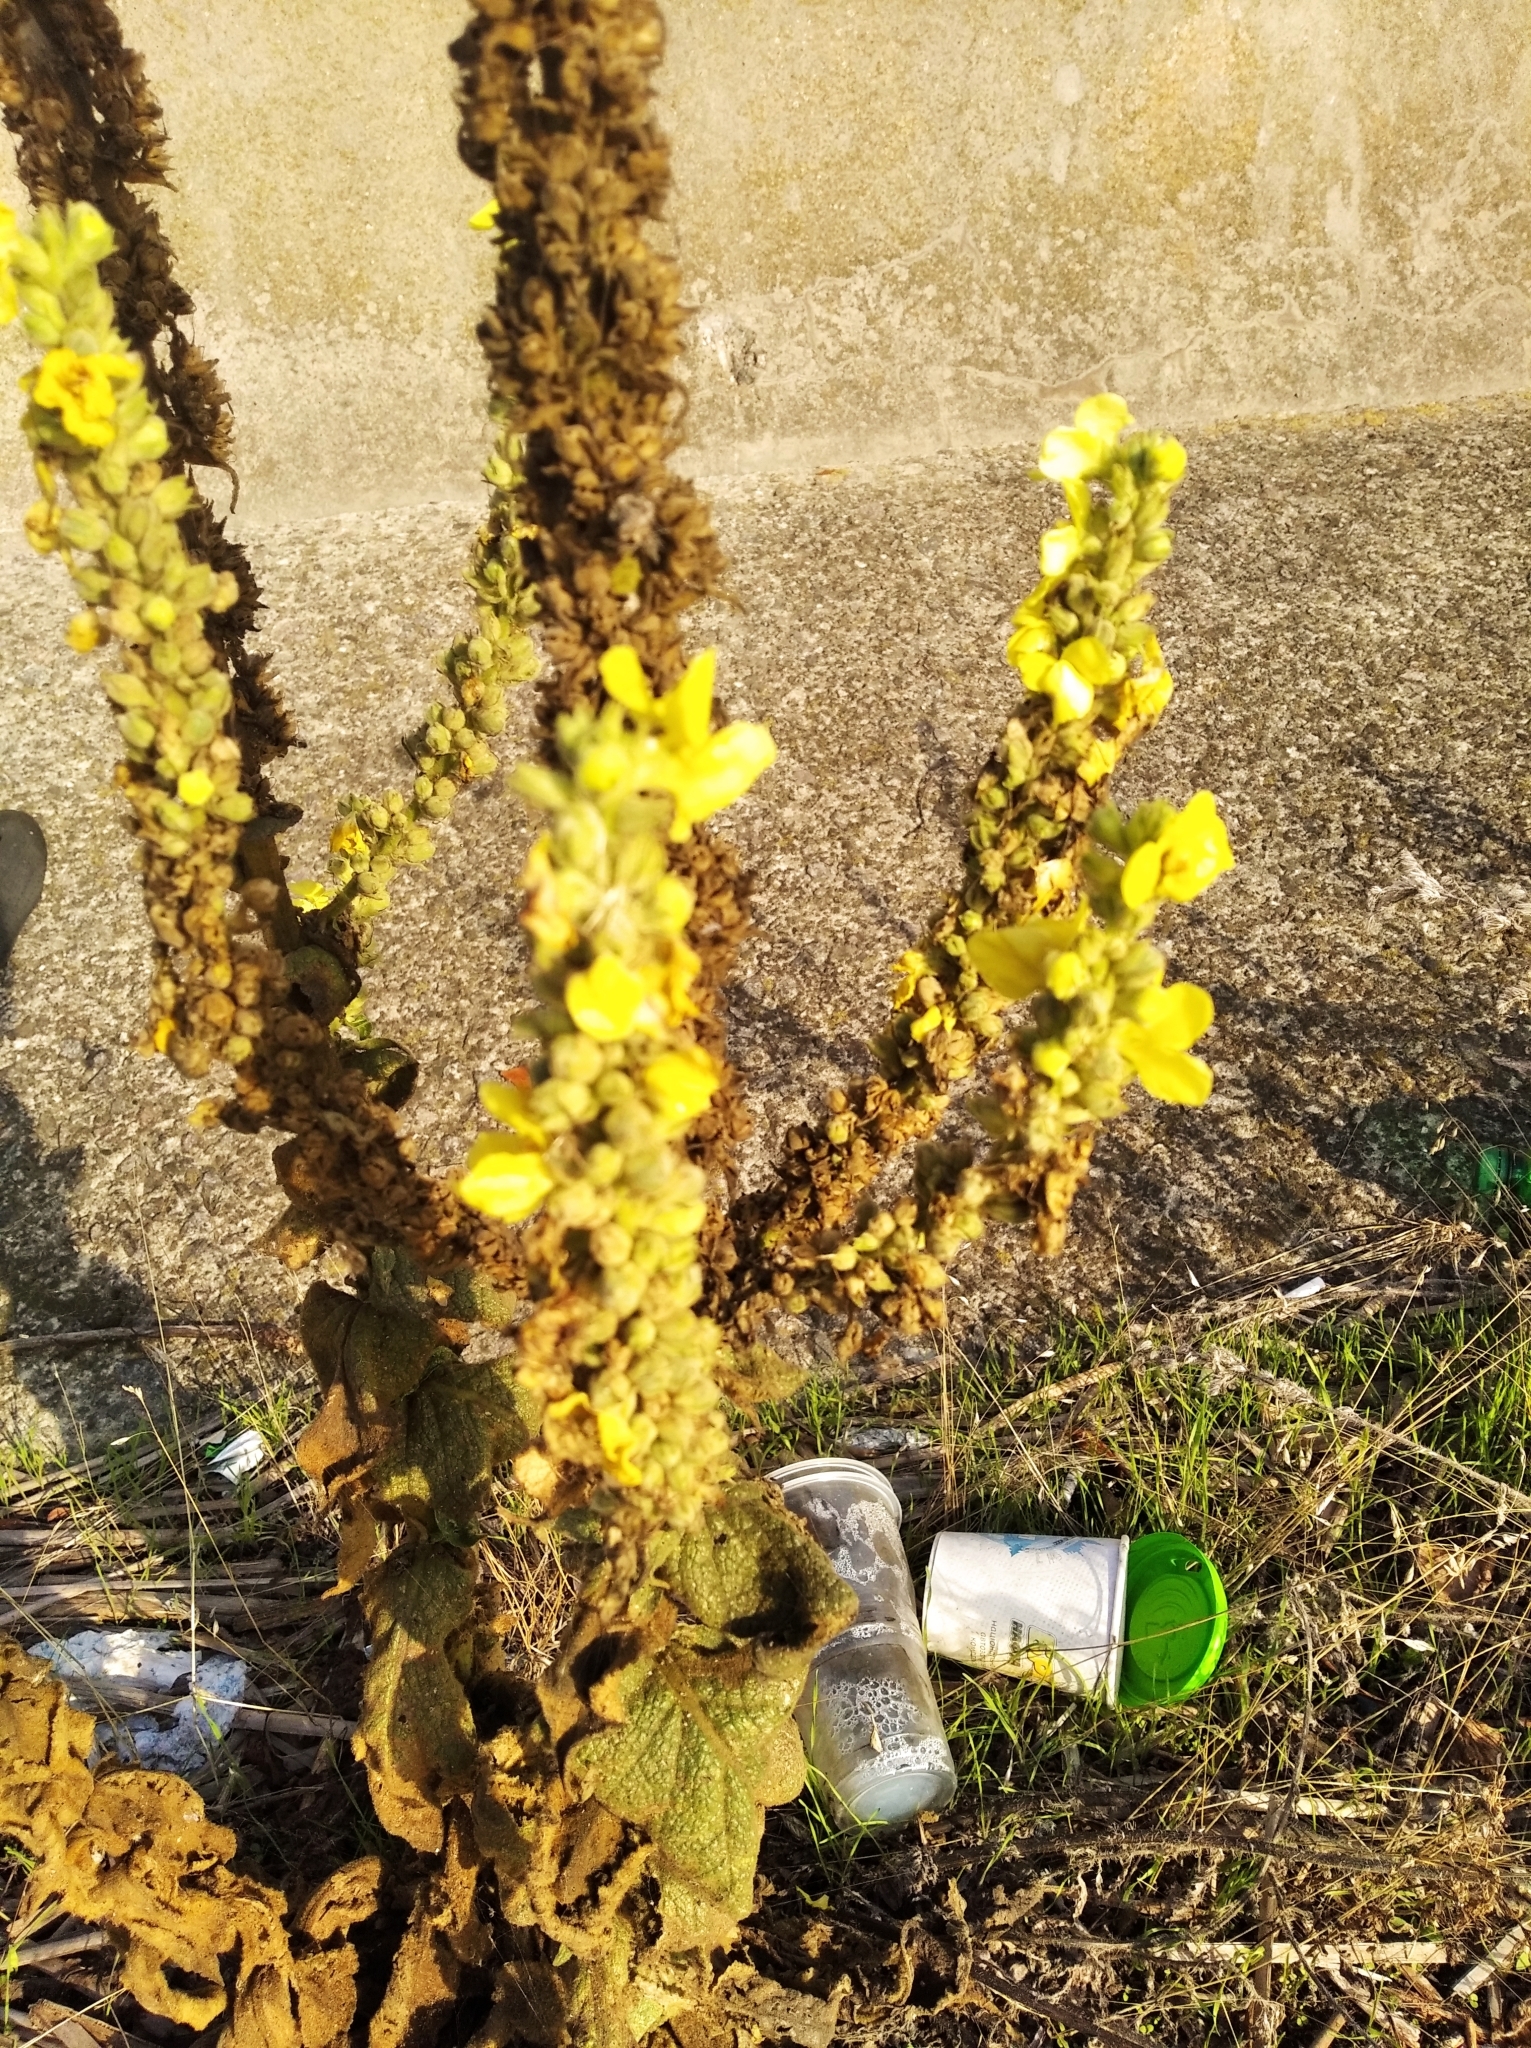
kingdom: Plantae
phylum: Tracheophyta
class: Magnoliopsida
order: Lamiales
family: Scrophulariaceae
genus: Verbascum
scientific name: Verbascum phlomoides
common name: Orange mullein
